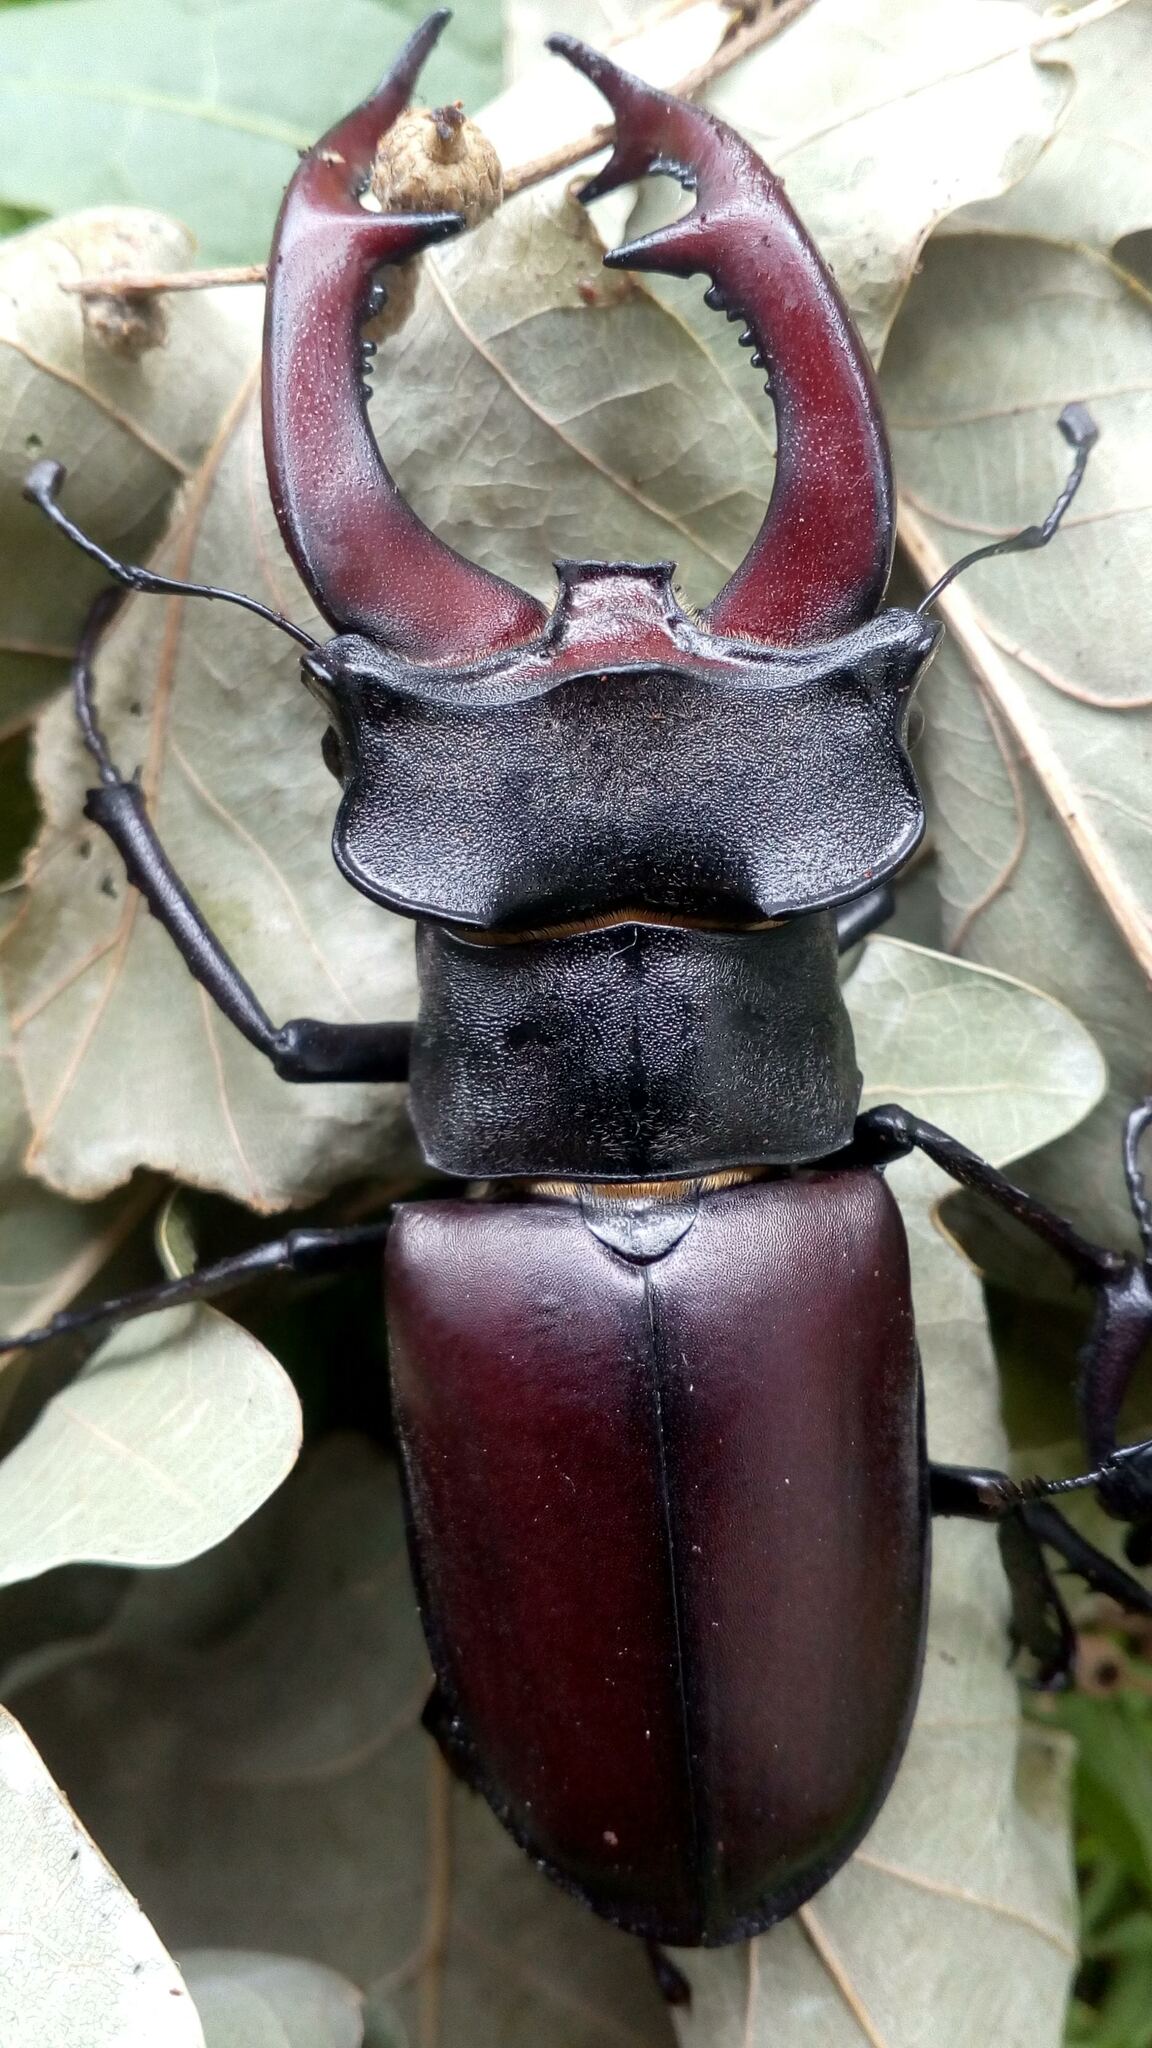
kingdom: Animalia
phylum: Arthropoda
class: Insecta
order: Coleoptera
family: Lucanidae
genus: Lucanus
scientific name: Lucanus cervus
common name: Stag beetle
